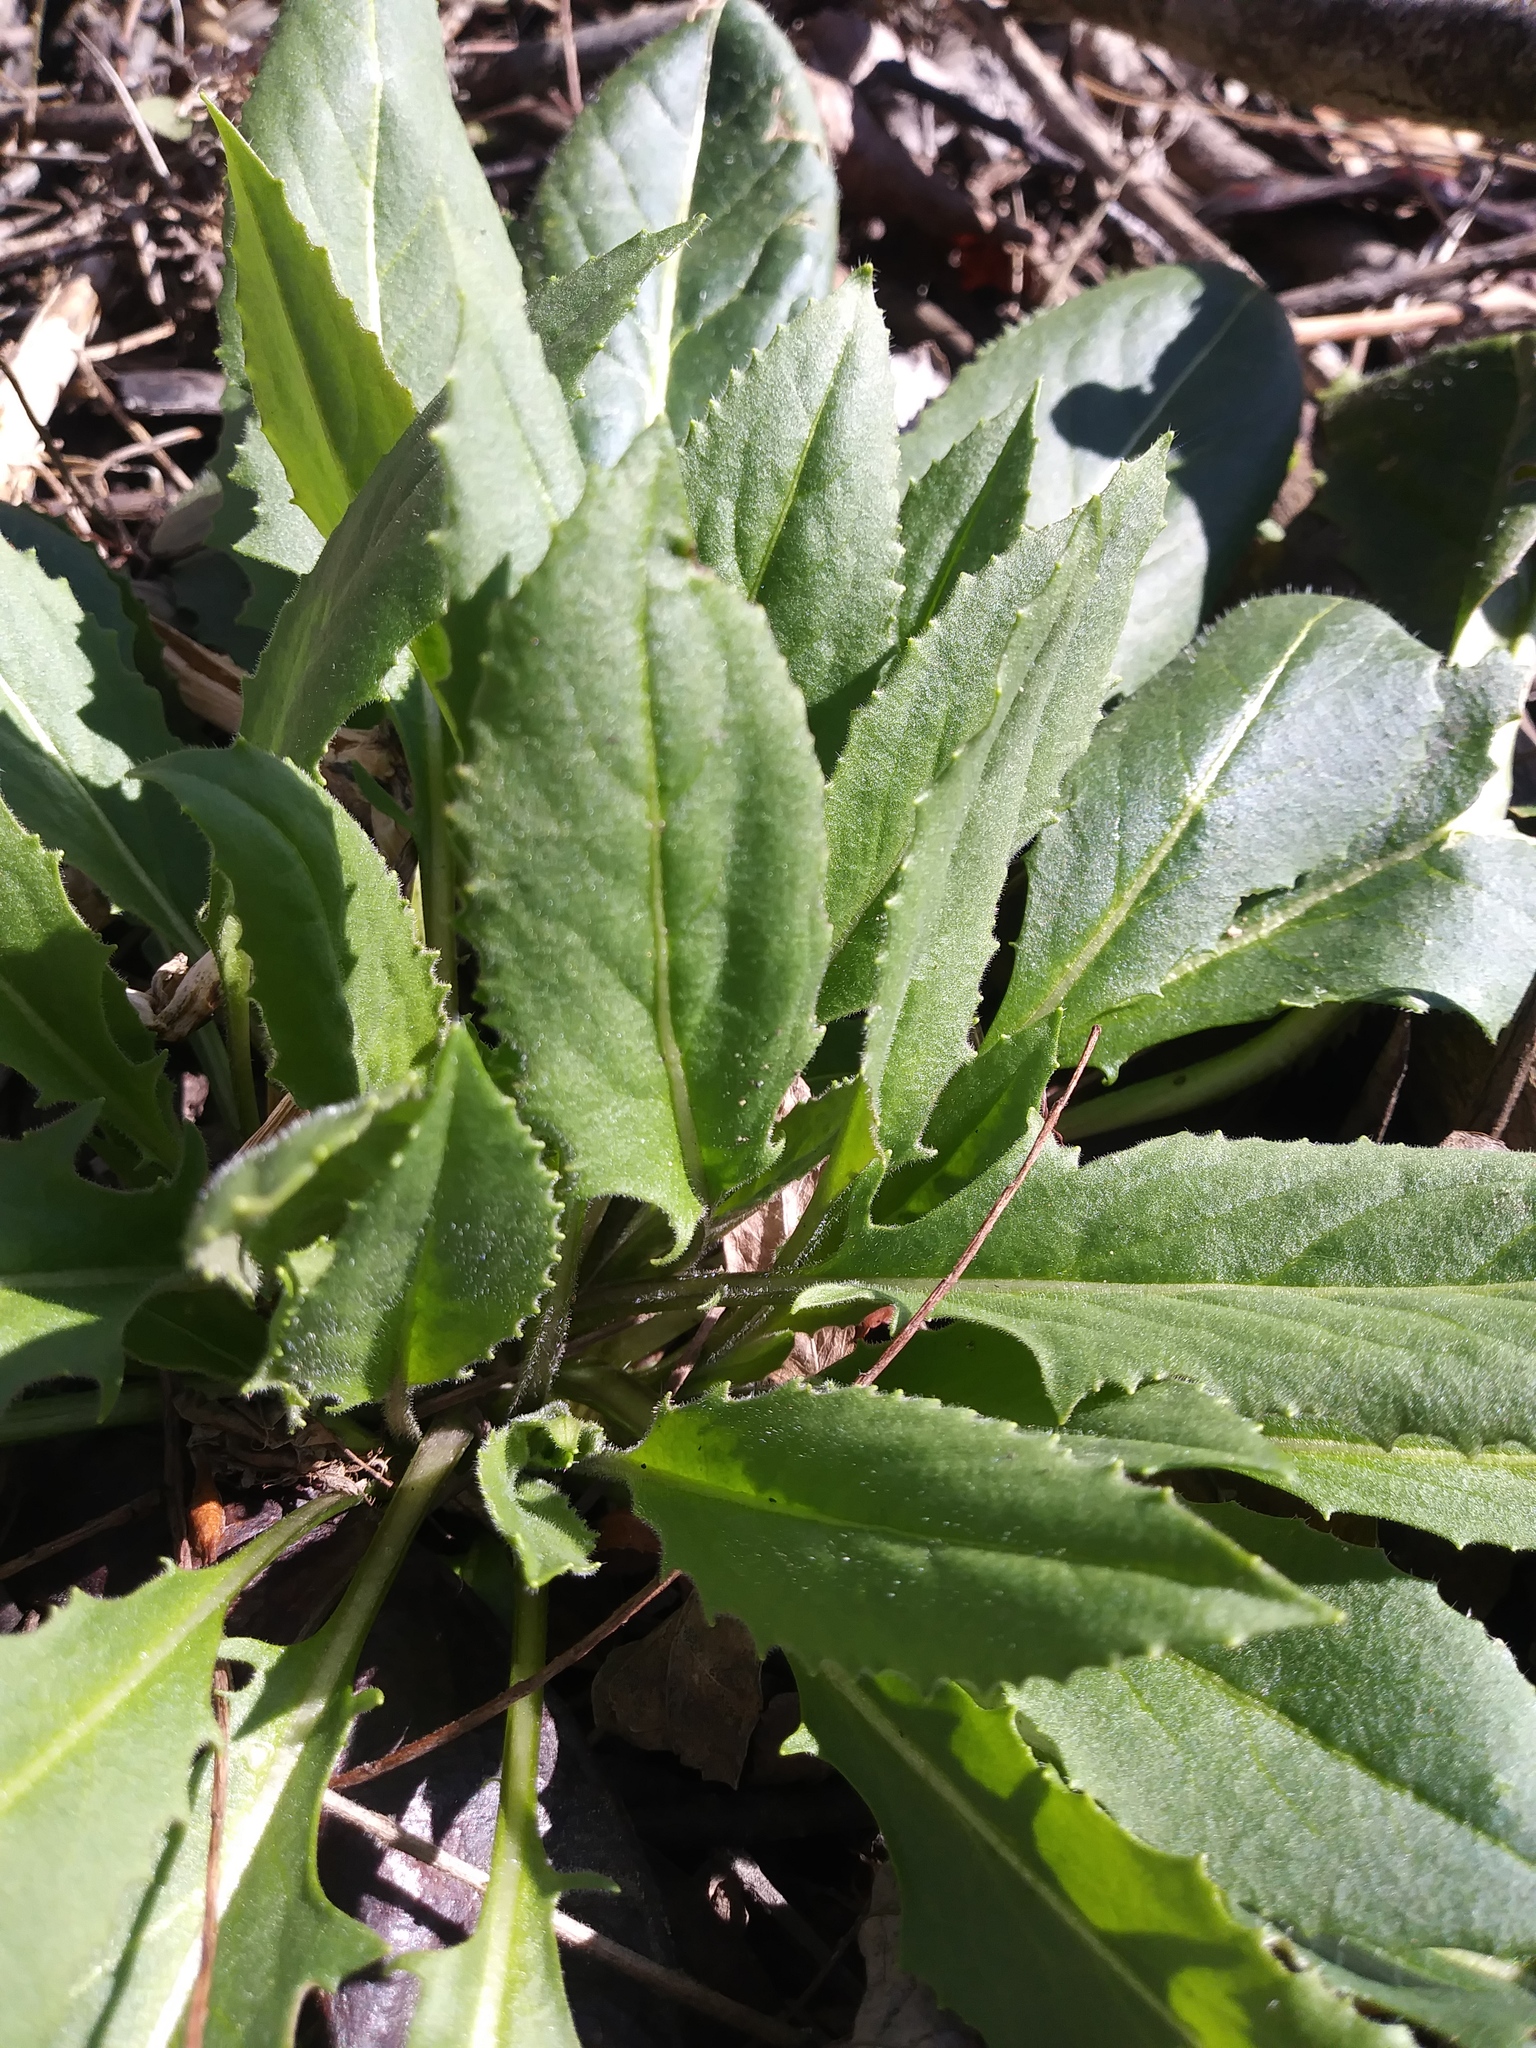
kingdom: Plantae
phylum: Tracheophyta
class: Magnoliopsida
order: Brassicales
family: Brassicaceae
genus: Hesperis
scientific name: Hesperis matronalis
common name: Dame's-violet
